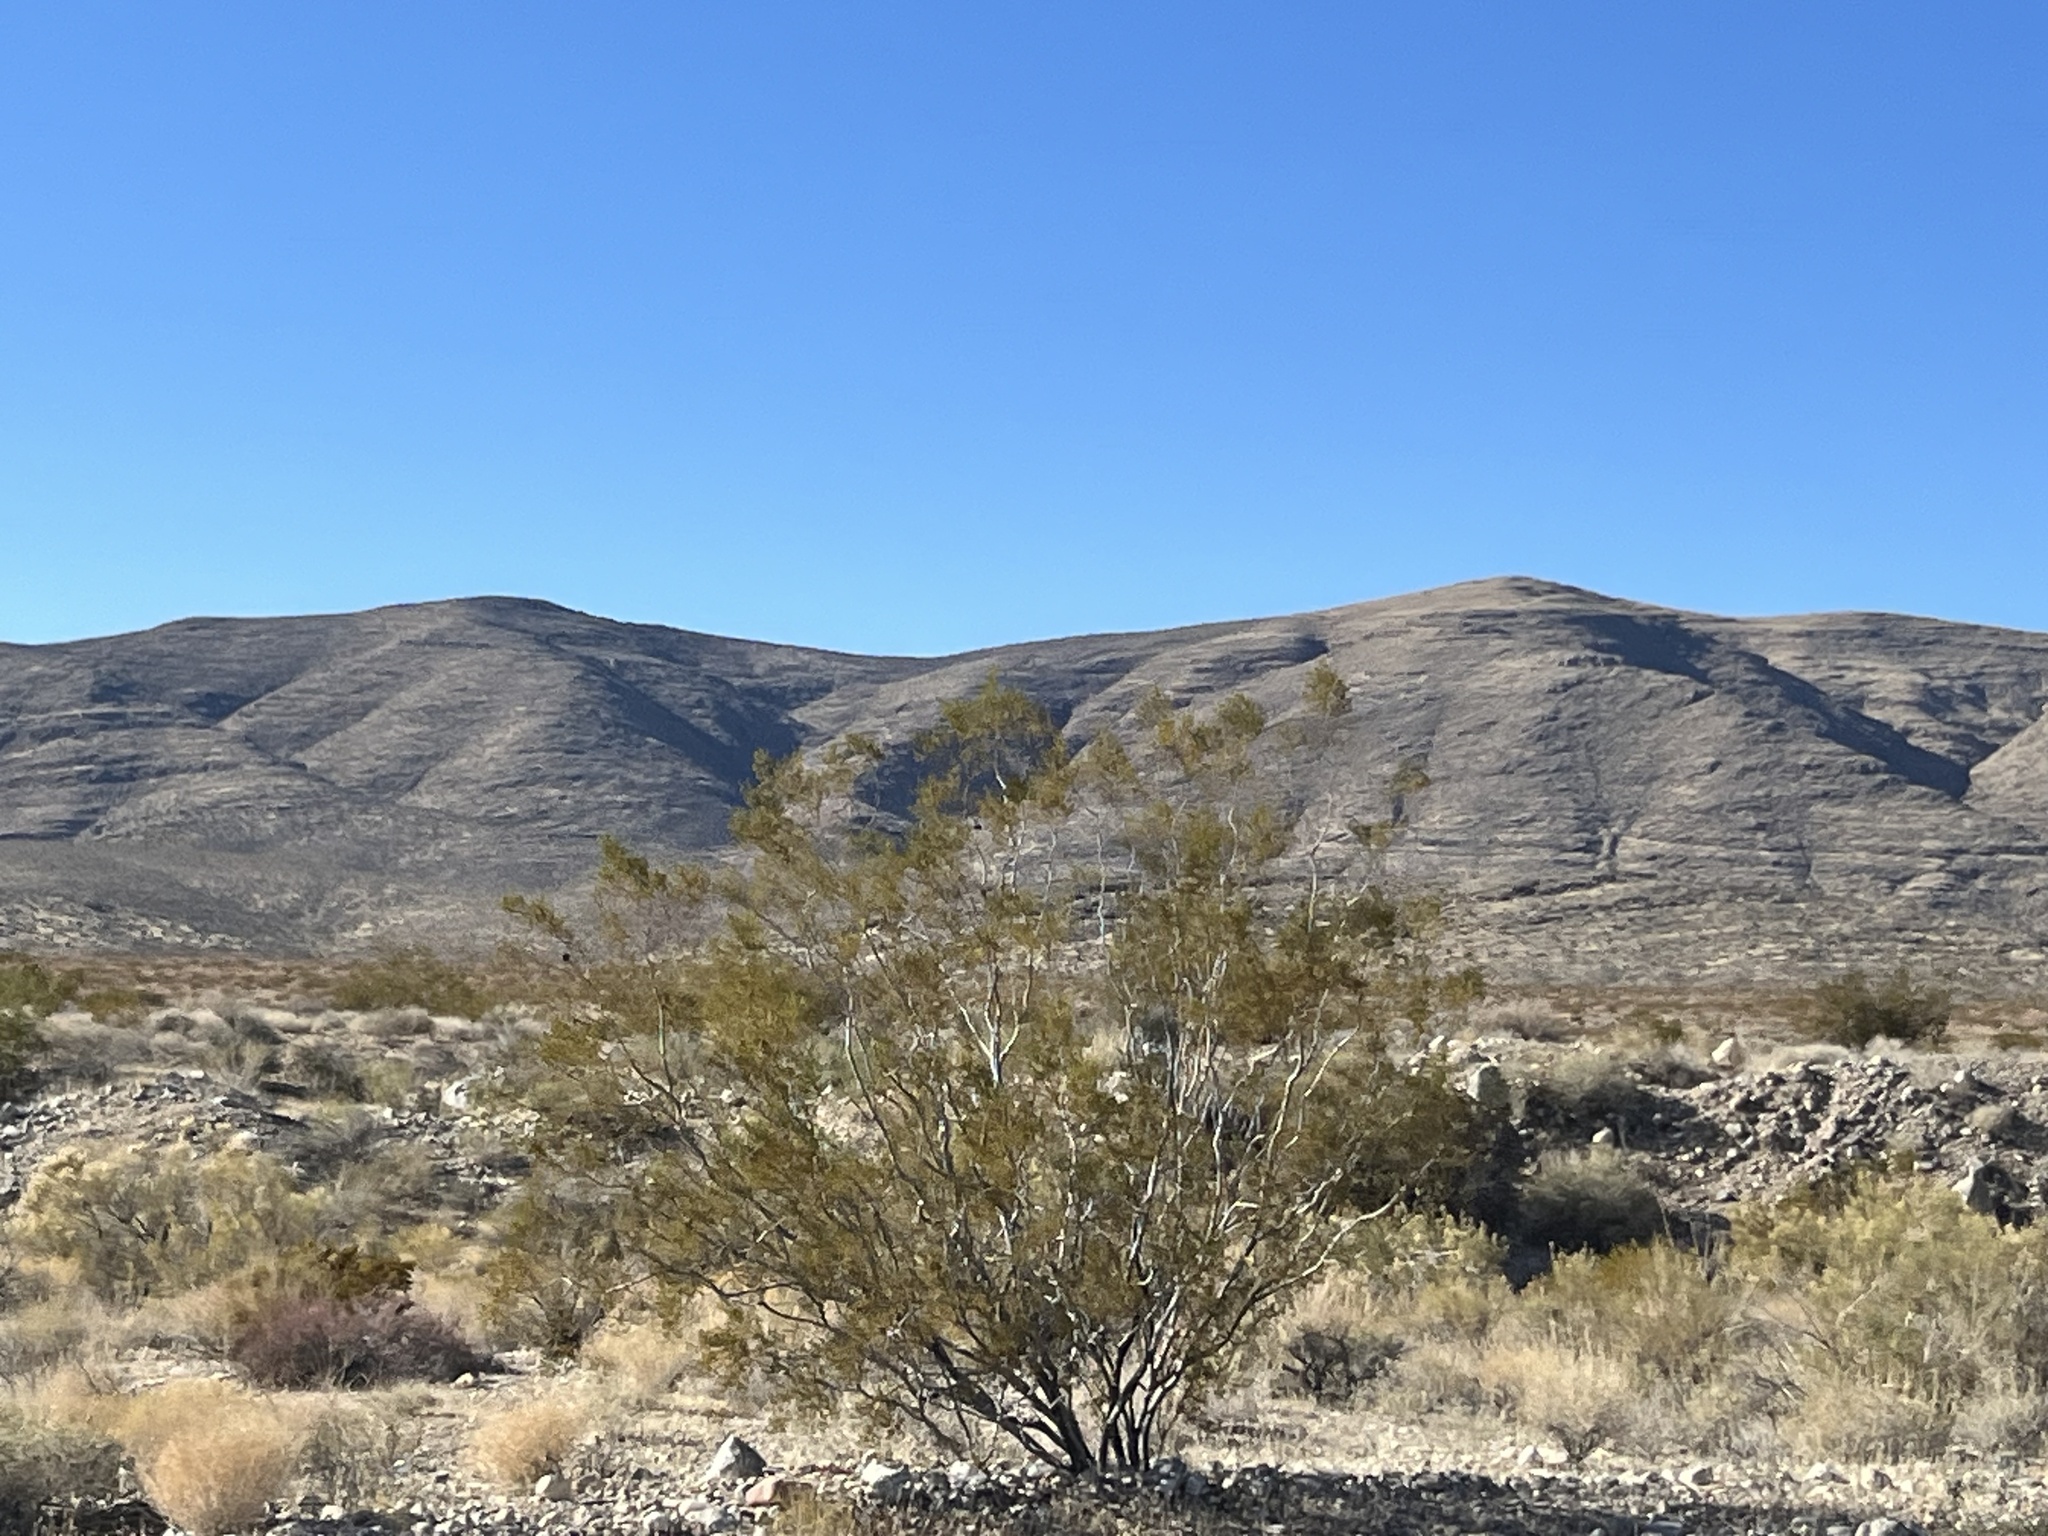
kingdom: Plantae
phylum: Tracheophyta
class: Magnoliopsida
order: Zygophyllales
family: Zygophyllaceae
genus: Larrea
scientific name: Larrea tridentata
